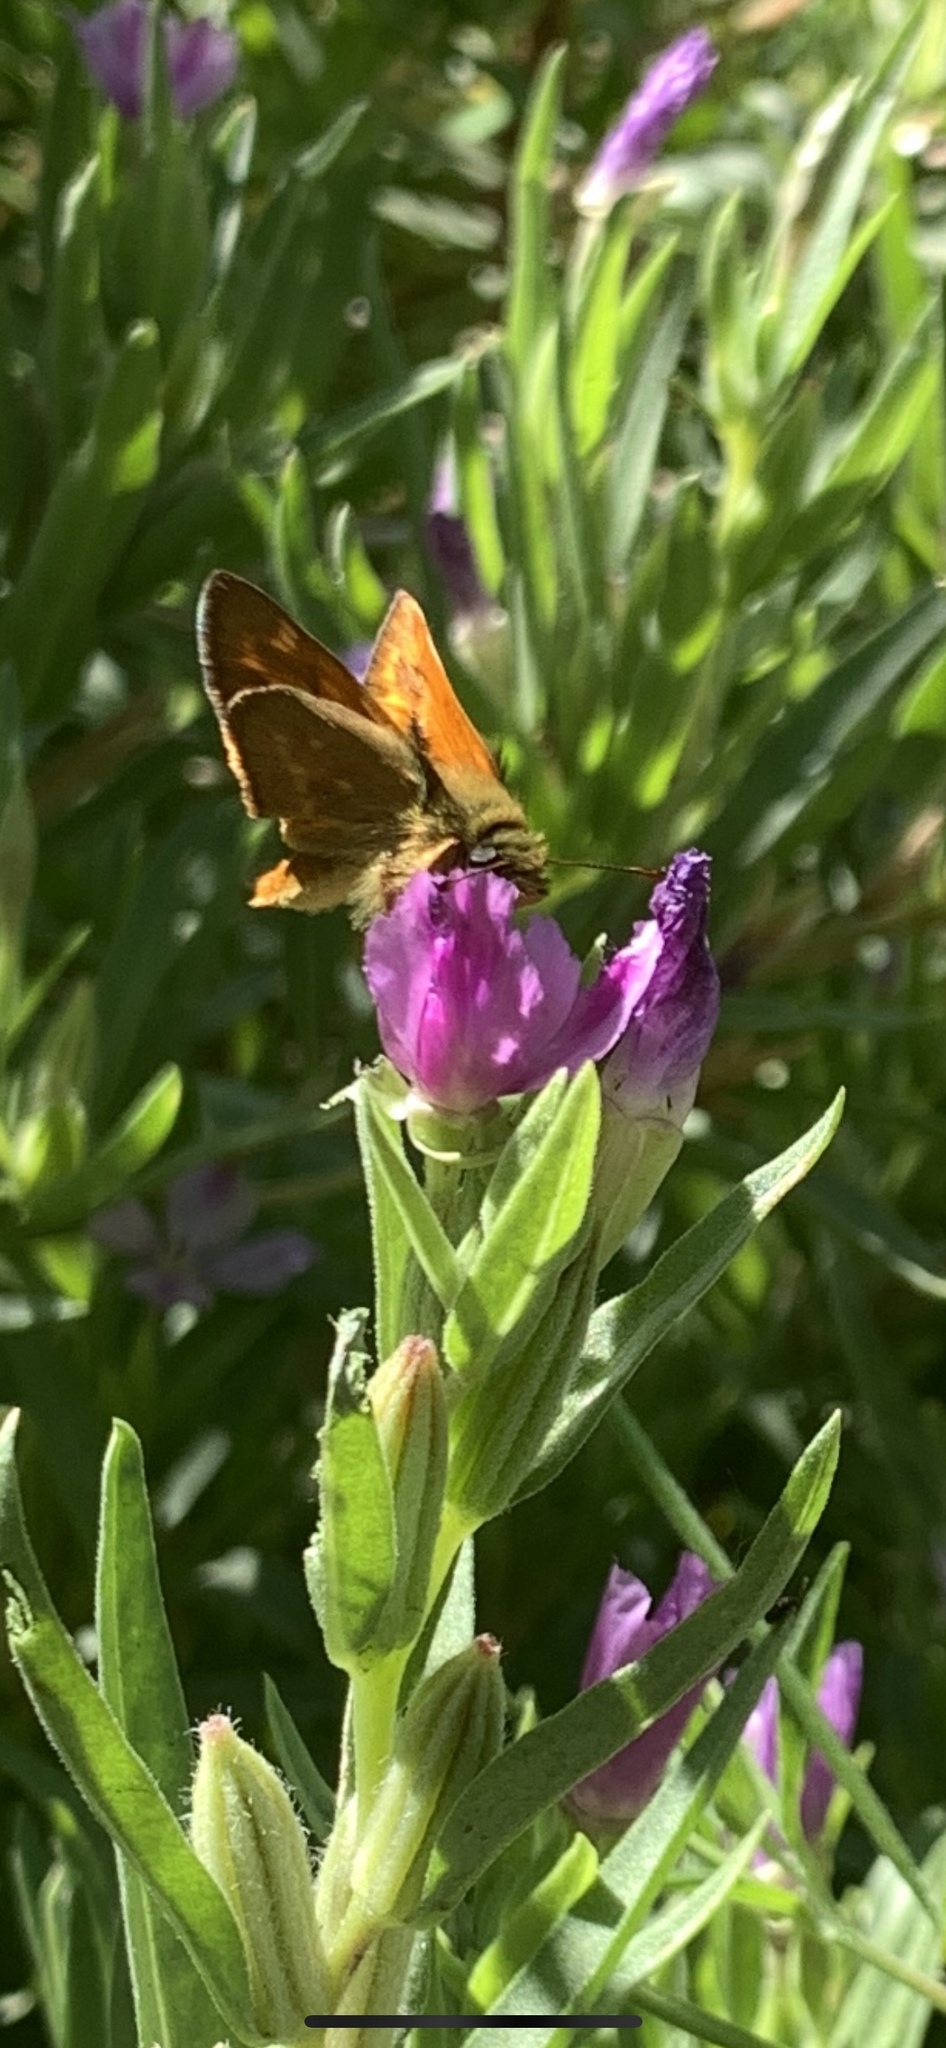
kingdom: Animalia
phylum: Arthropoda
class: Insecta
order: Lepidoptera
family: Hesperiidae
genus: Ochlodes
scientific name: Ochlodes sylvanoides
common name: Woodland skipper
